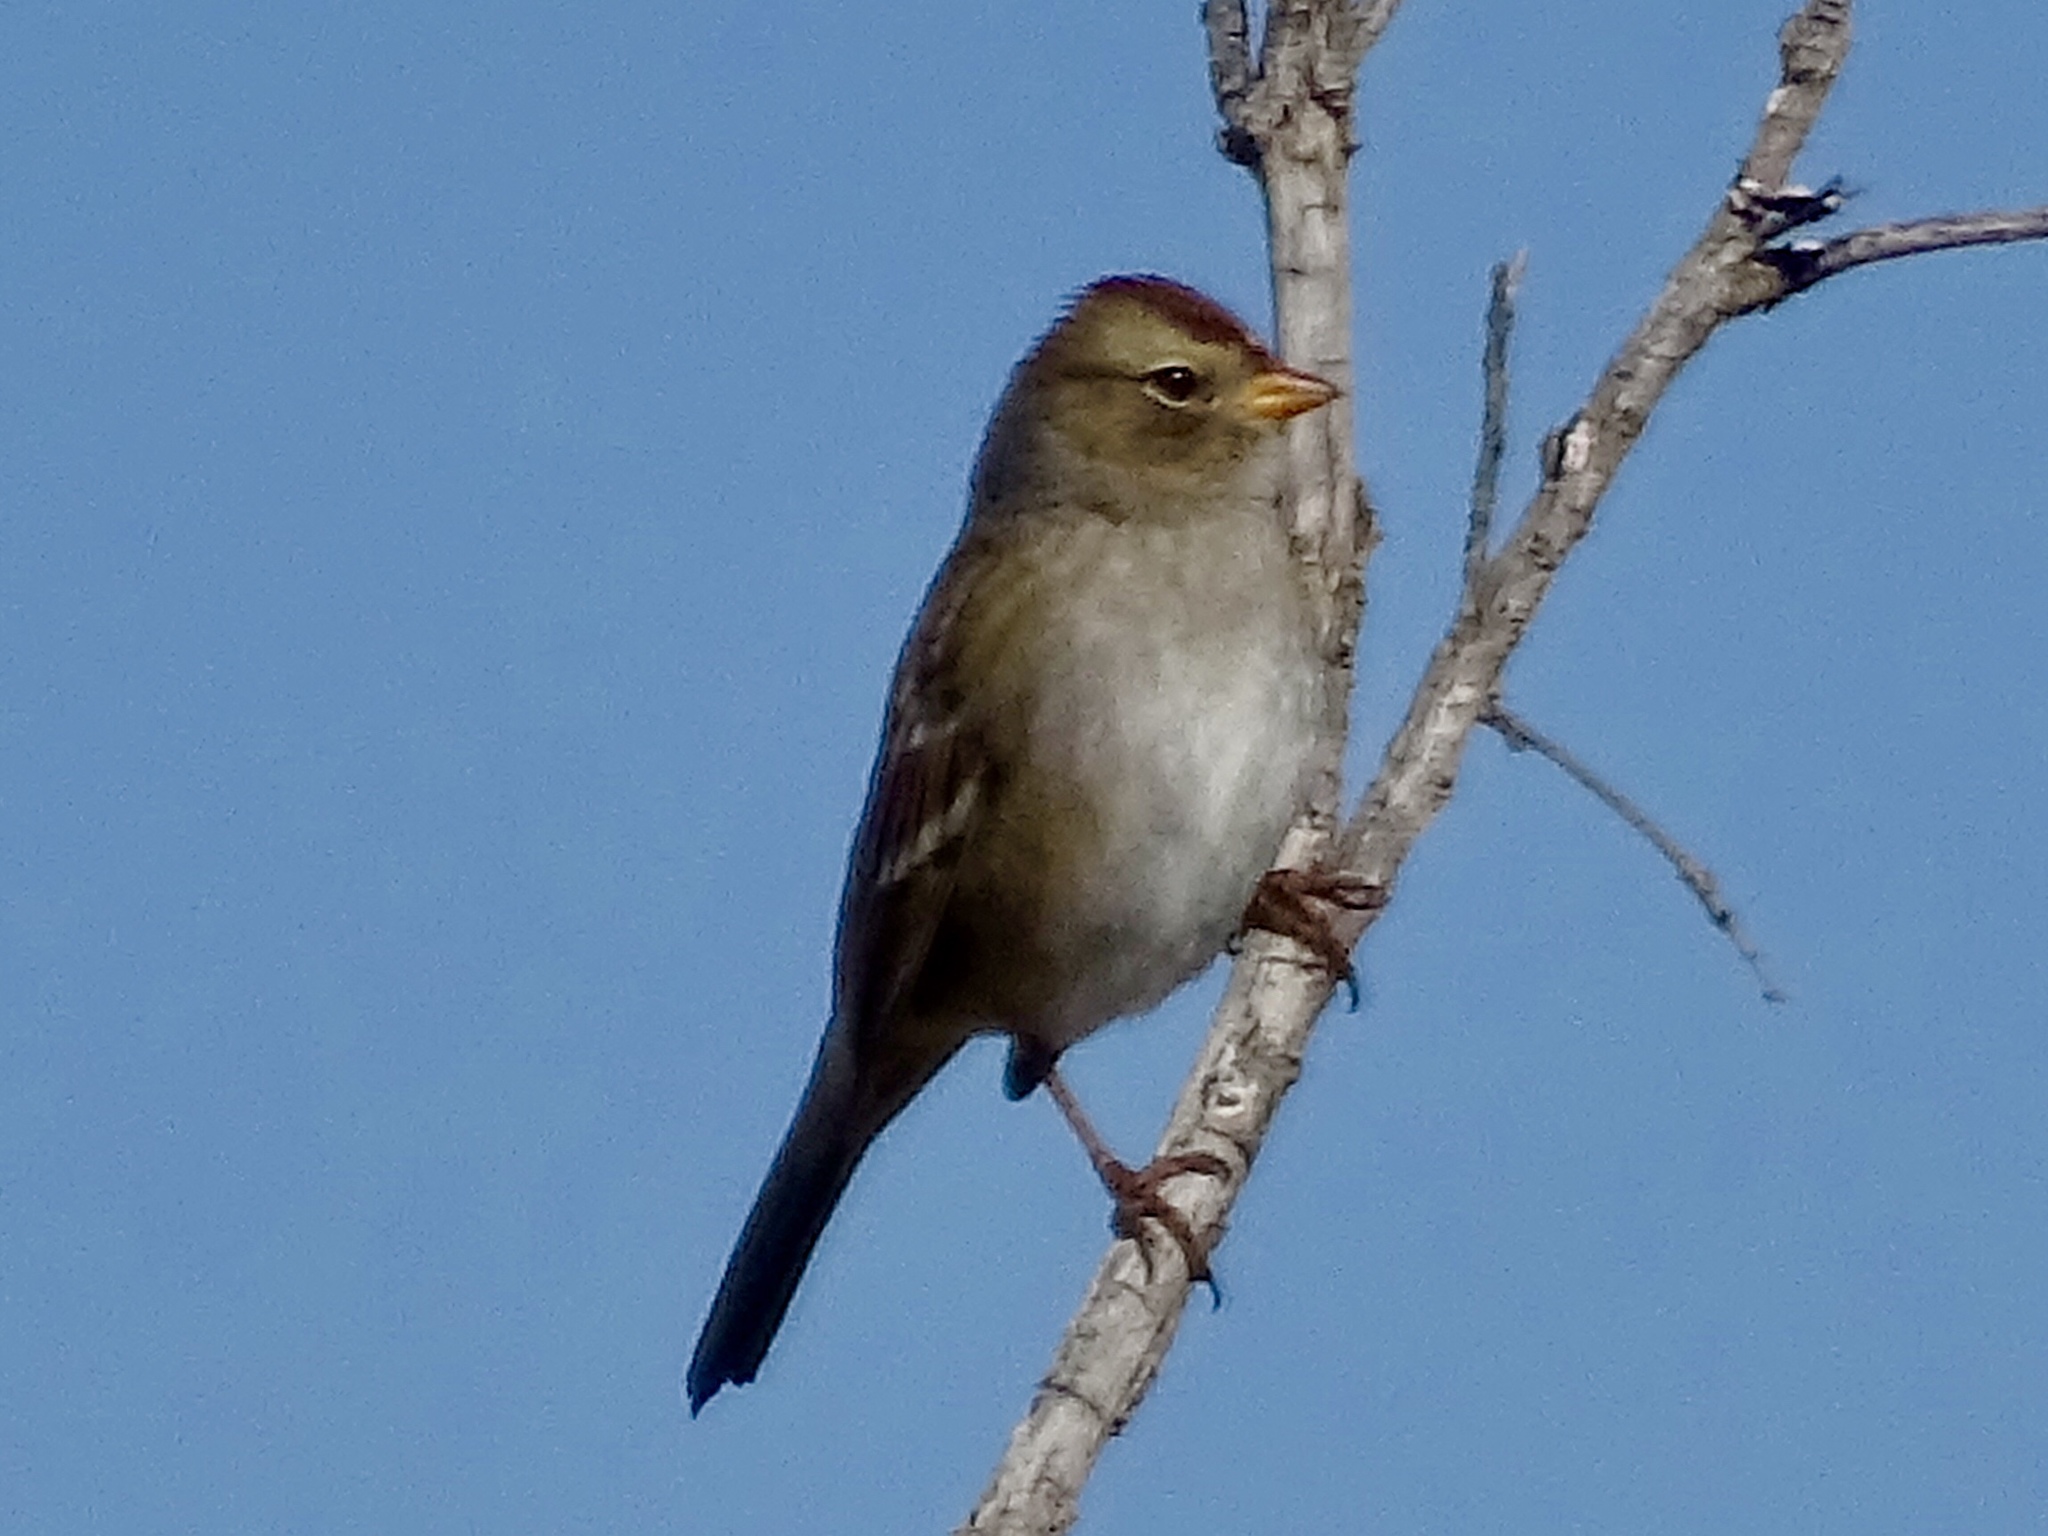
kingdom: Animalia
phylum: Chordata
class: Aves
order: Passeriformes
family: Passerellidae
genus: Zonotrichia
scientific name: Zonotrichia leucophrys
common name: White-crowned sparrow
